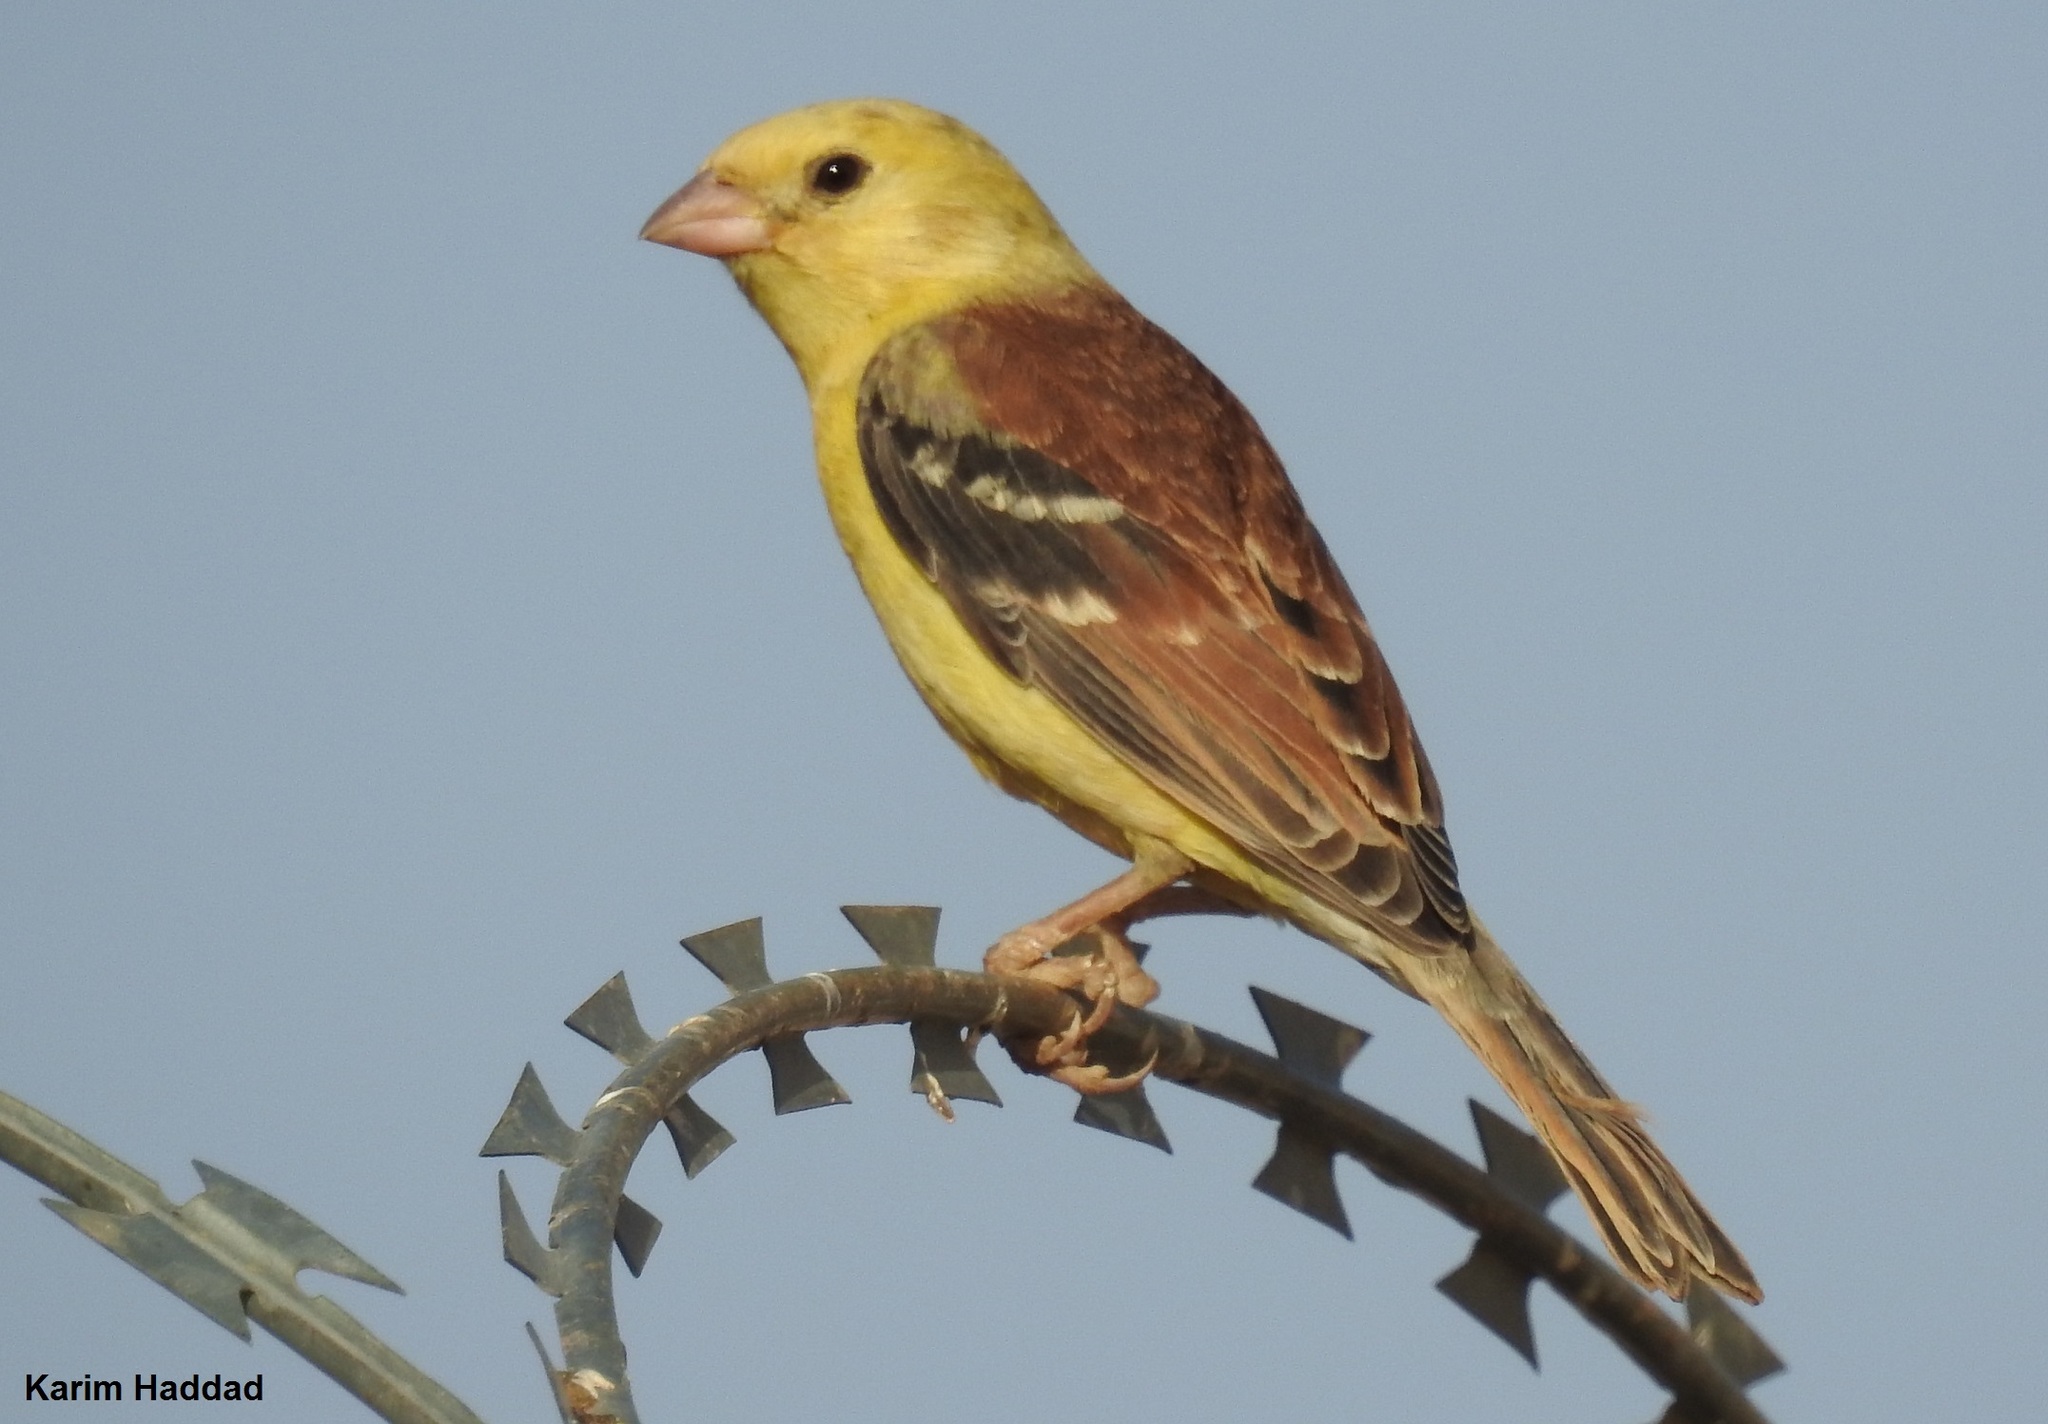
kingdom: Animalia
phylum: Chordata
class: Aves
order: Passeriformes
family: Passeridae
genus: Passer
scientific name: Passer luteus
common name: Sudan golden sparrow
